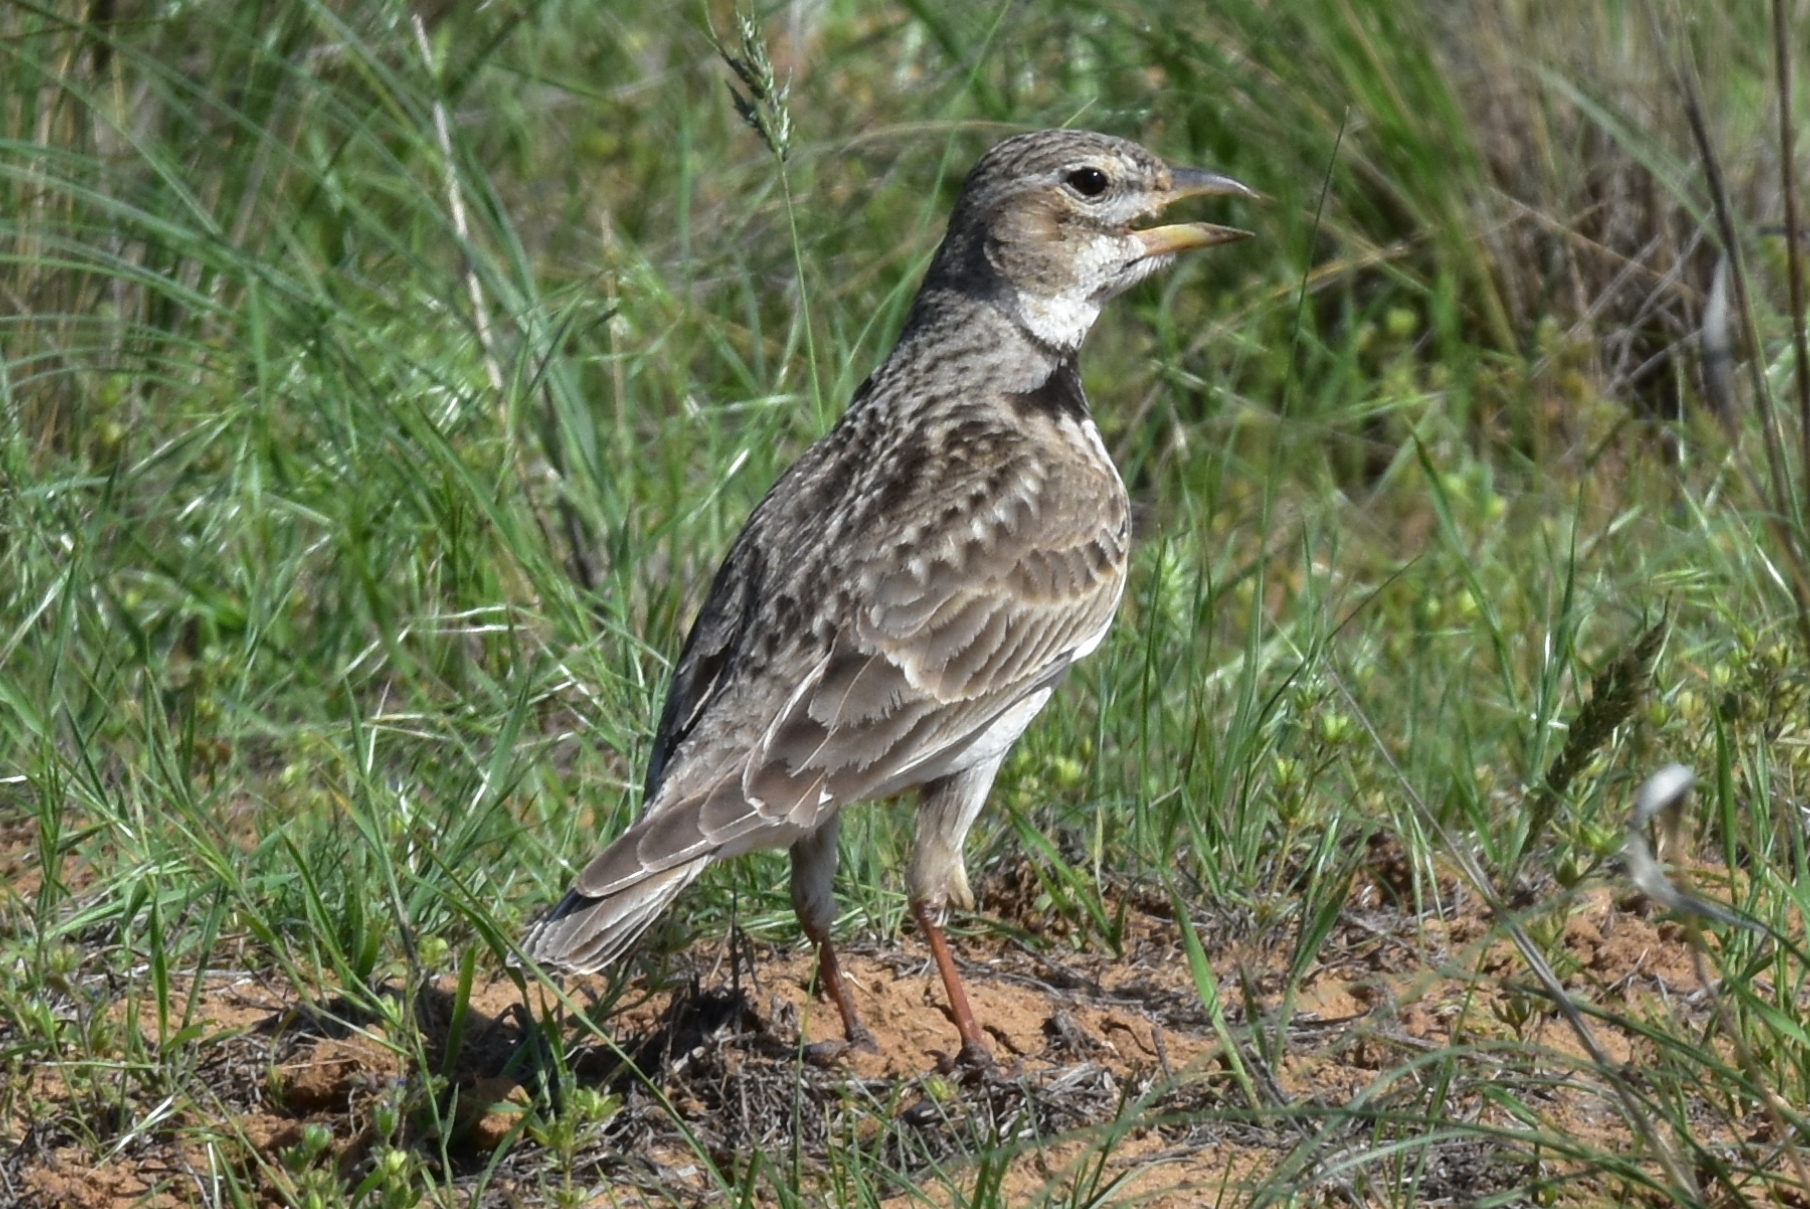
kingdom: Animalia
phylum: Chordata
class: Aves
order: Passeriformes
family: Alaudidae
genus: Melanocorypha
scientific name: Melanocorypha calandra
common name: Calandra lark
